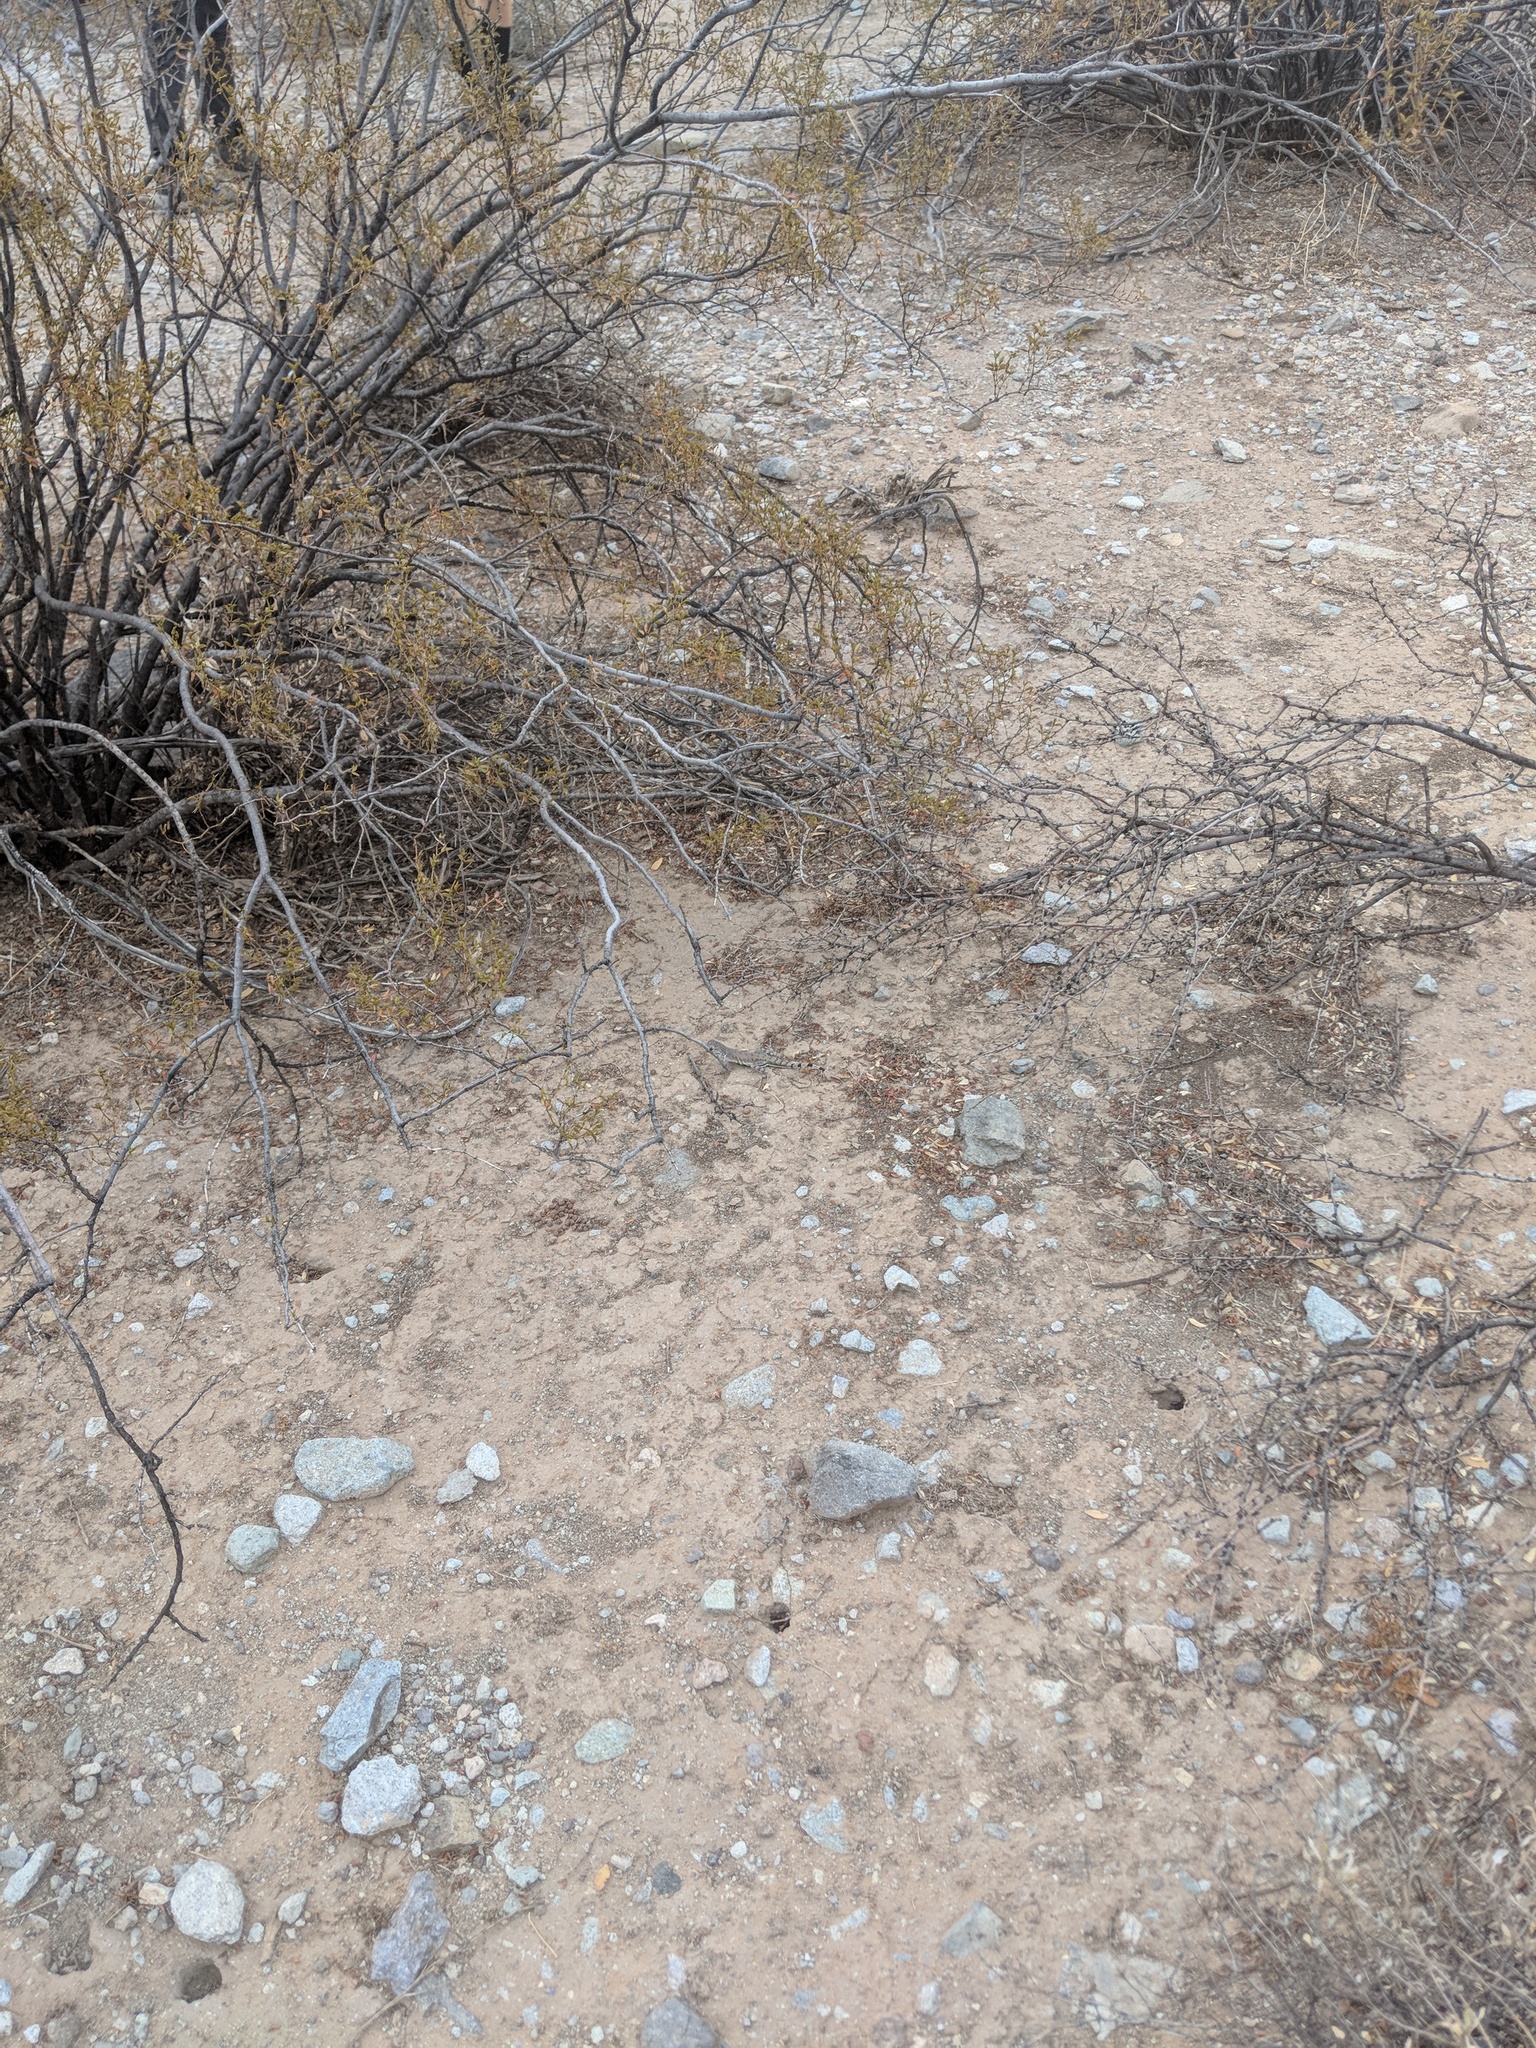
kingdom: Animalia
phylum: Chordata
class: Squamata
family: Phrynosomatidae
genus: Callisaurus
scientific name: Callisaurus draconoides
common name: Zebra-tailed lizard
